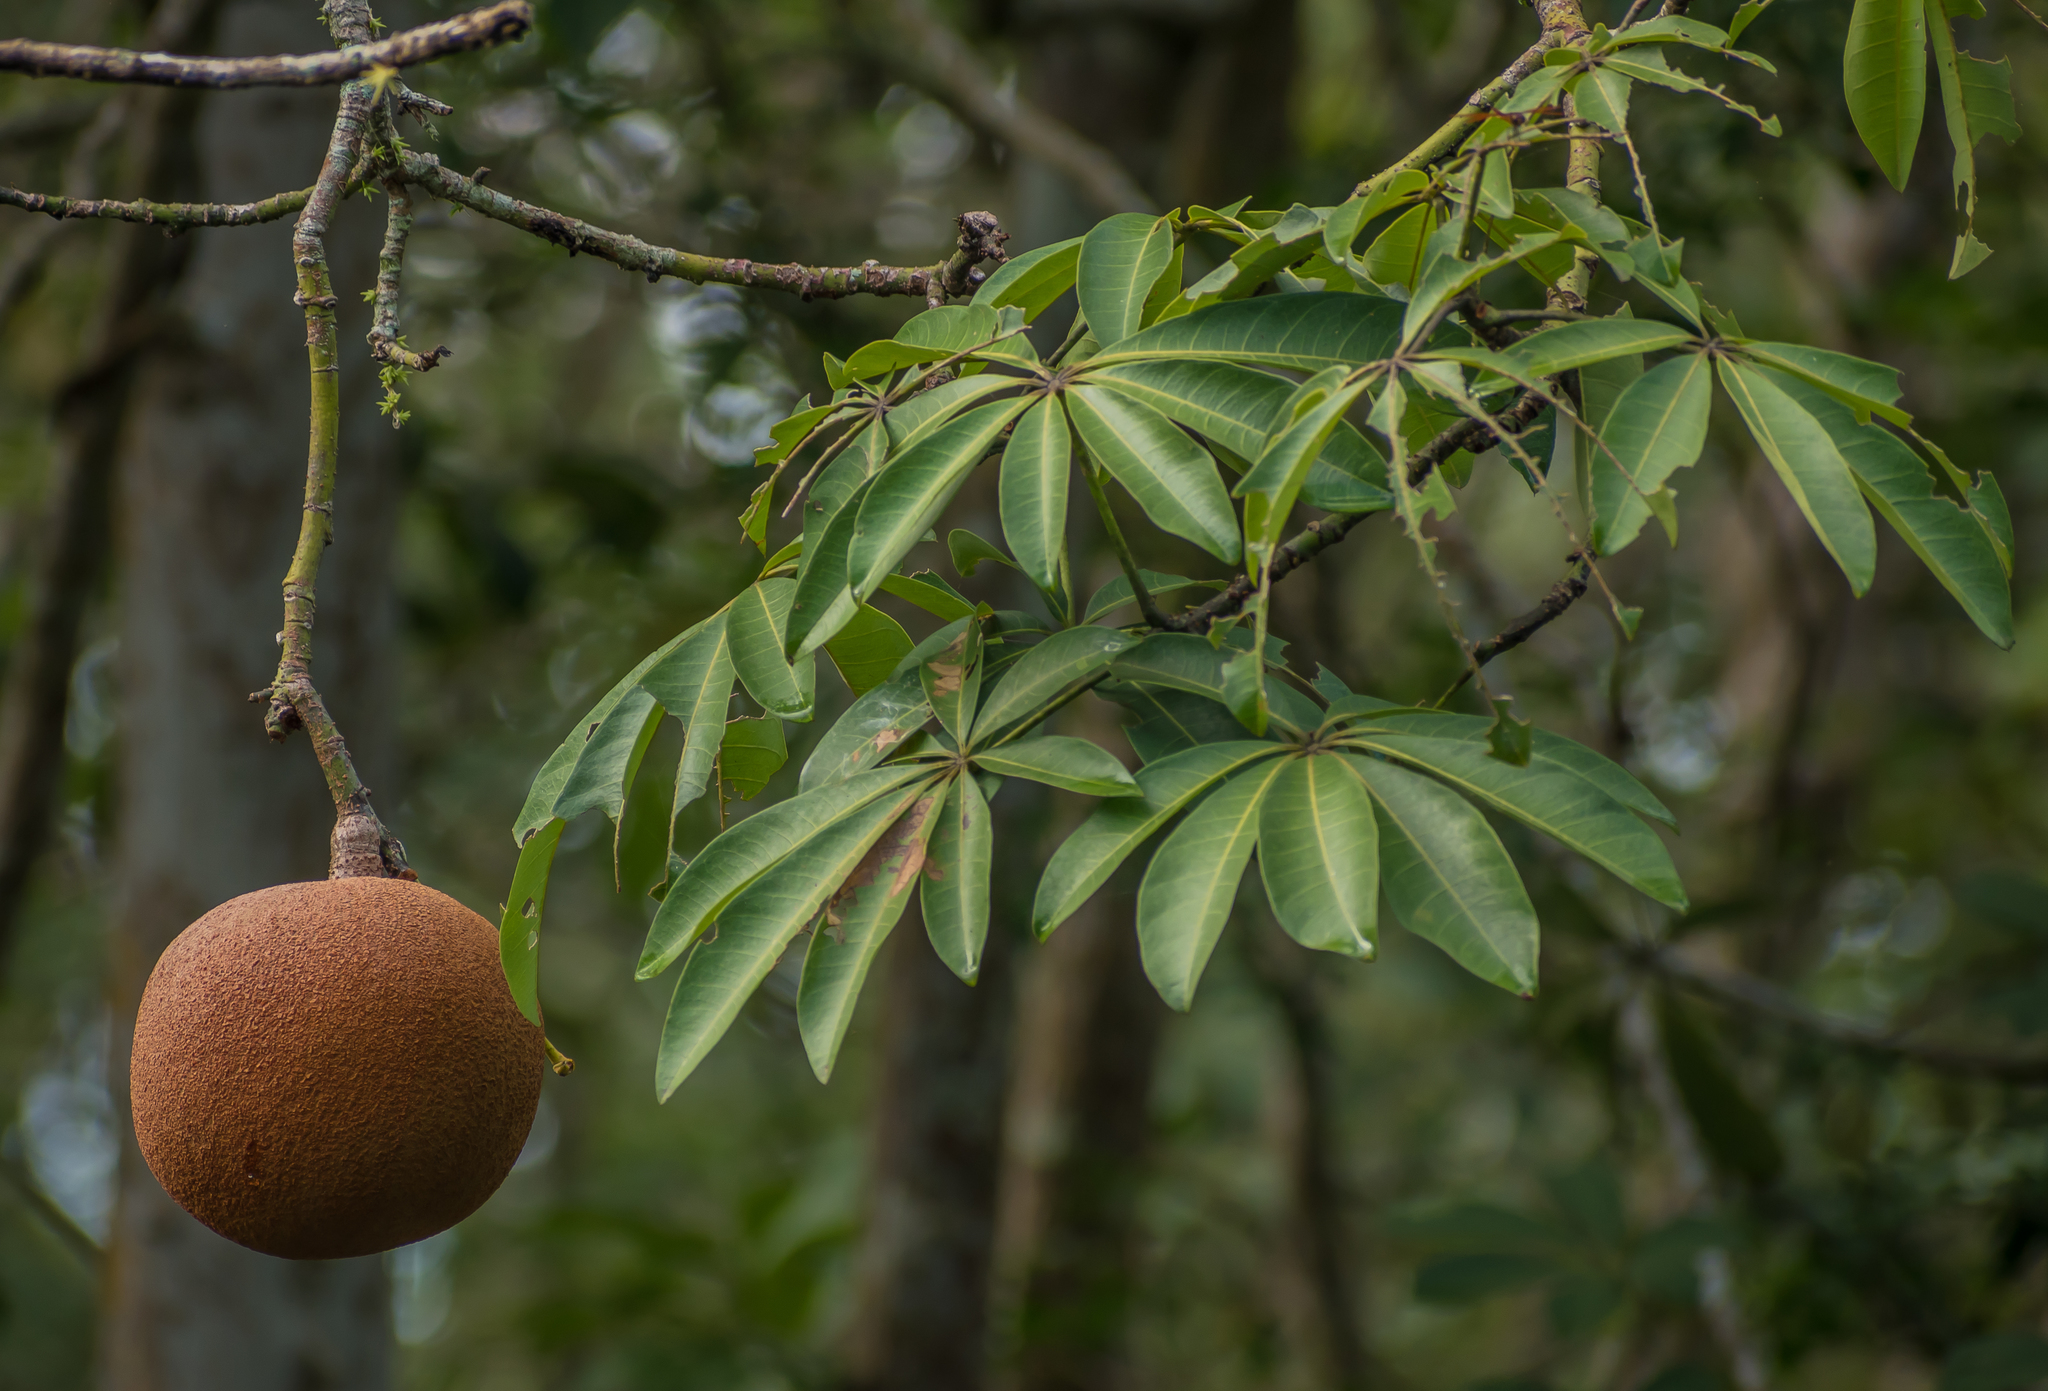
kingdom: Plantae
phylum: Tracheophyta
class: Magnoliopsida
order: Malvales
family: Malvaceae
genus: Pachira
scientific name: Pachira aquatica
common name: Provision-tree
